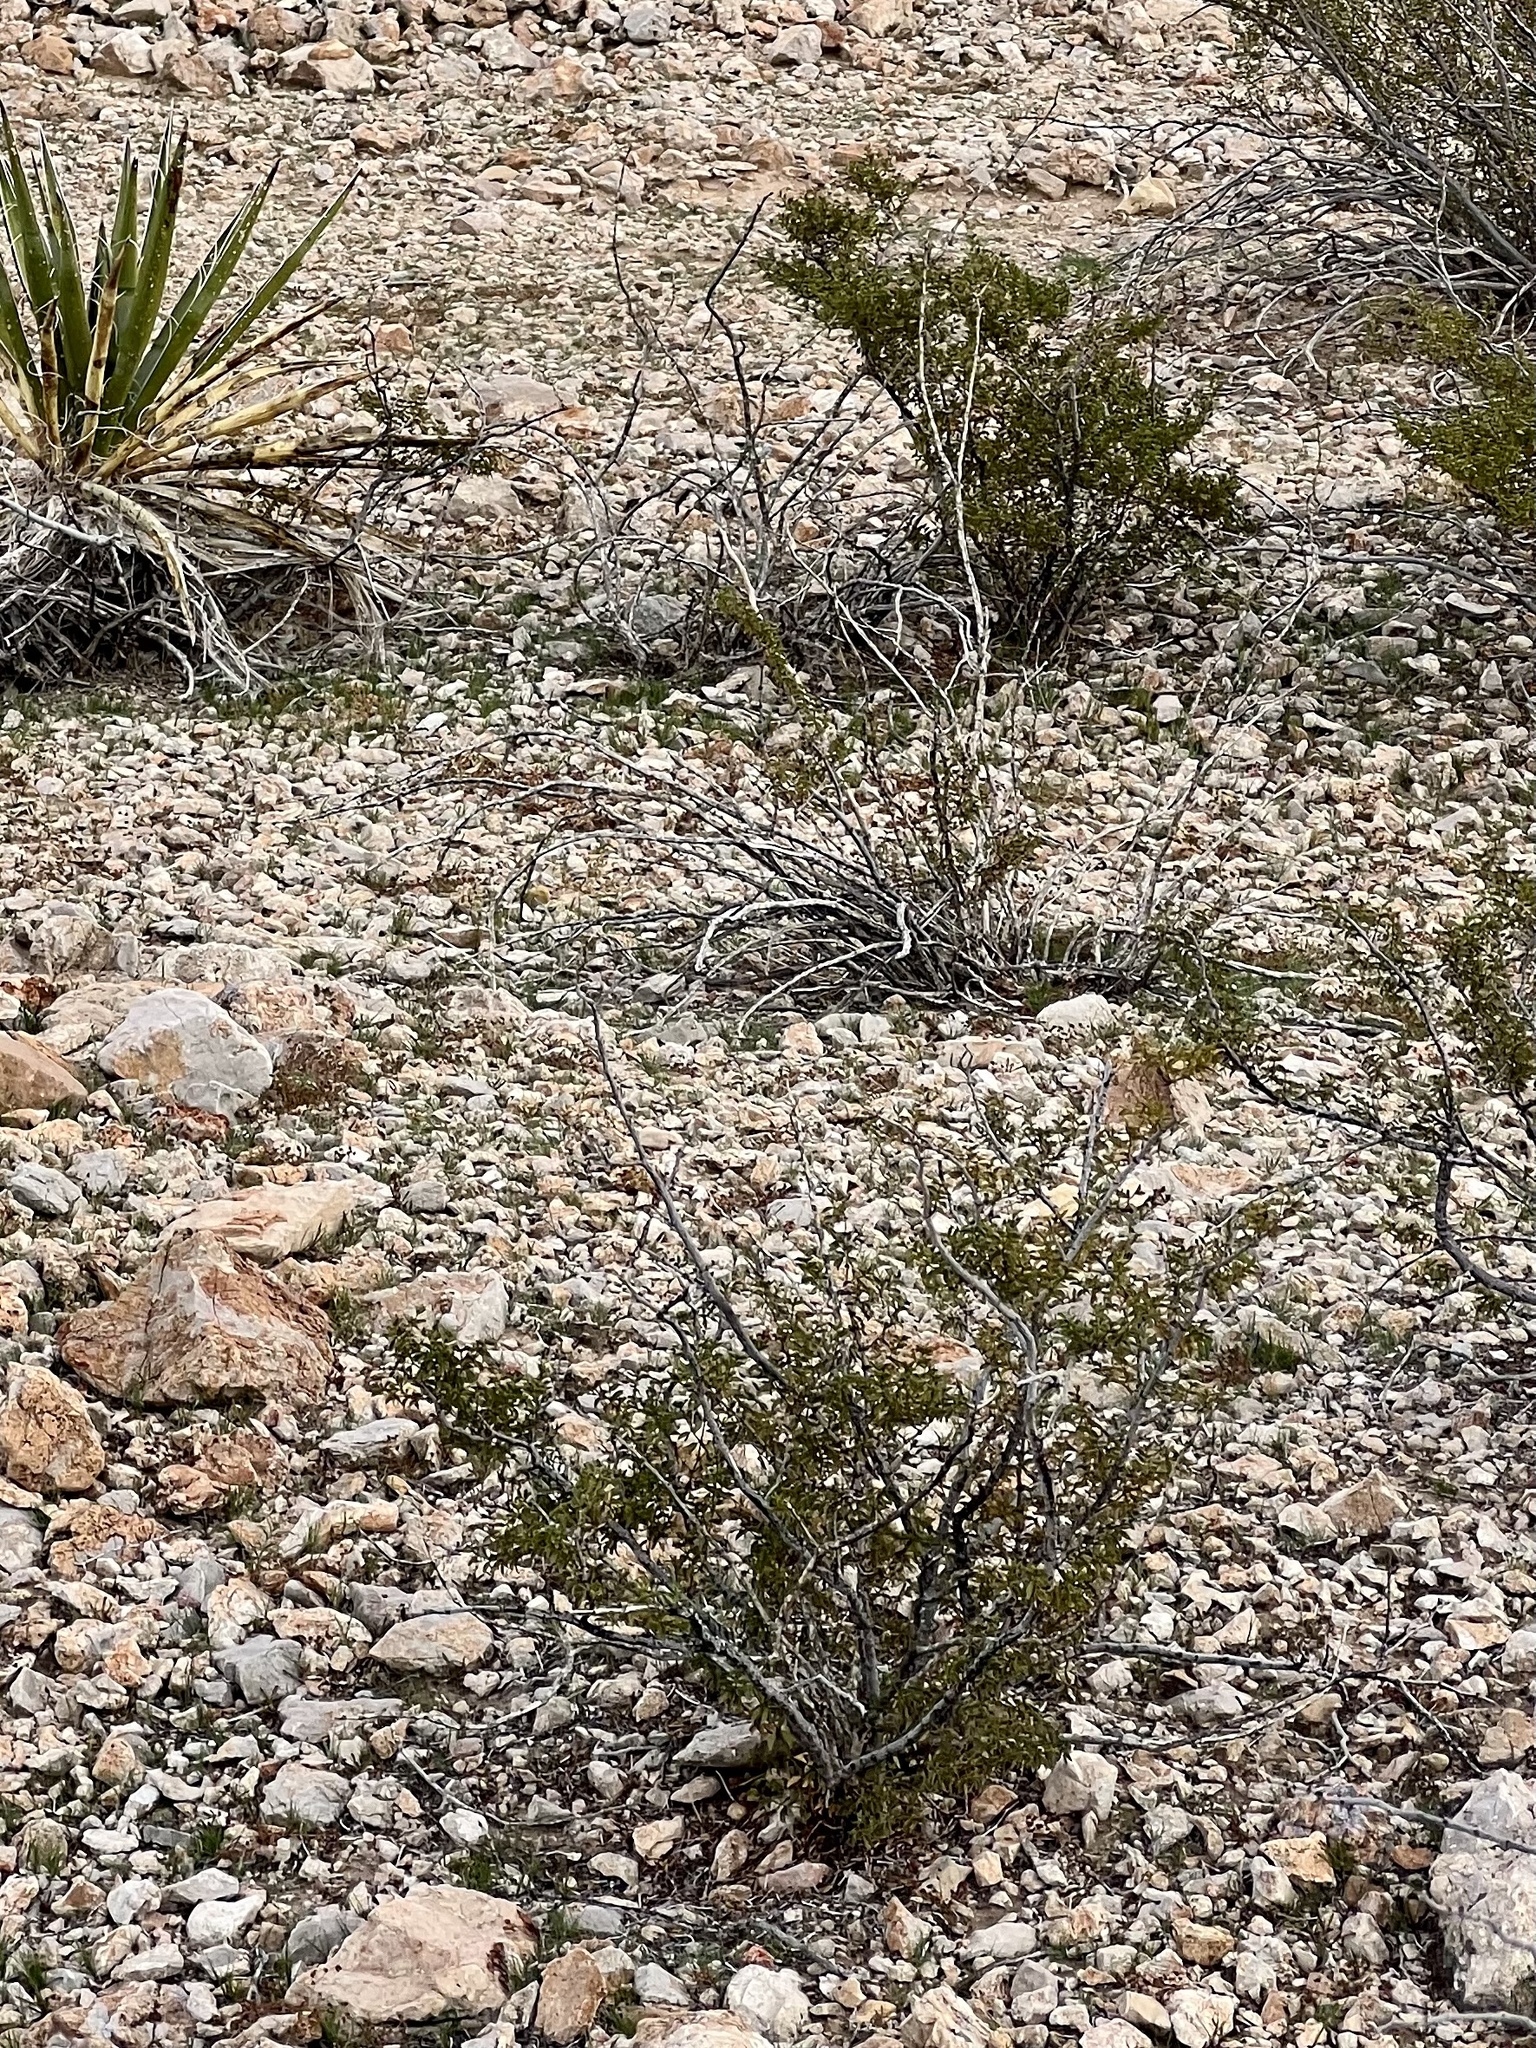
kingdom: Plantae
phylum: Tracheophyta
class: Magnoliopsida
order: Zygophyllales
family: Zygophyllaceae
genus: Larrea
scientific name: Larrea tridentata
